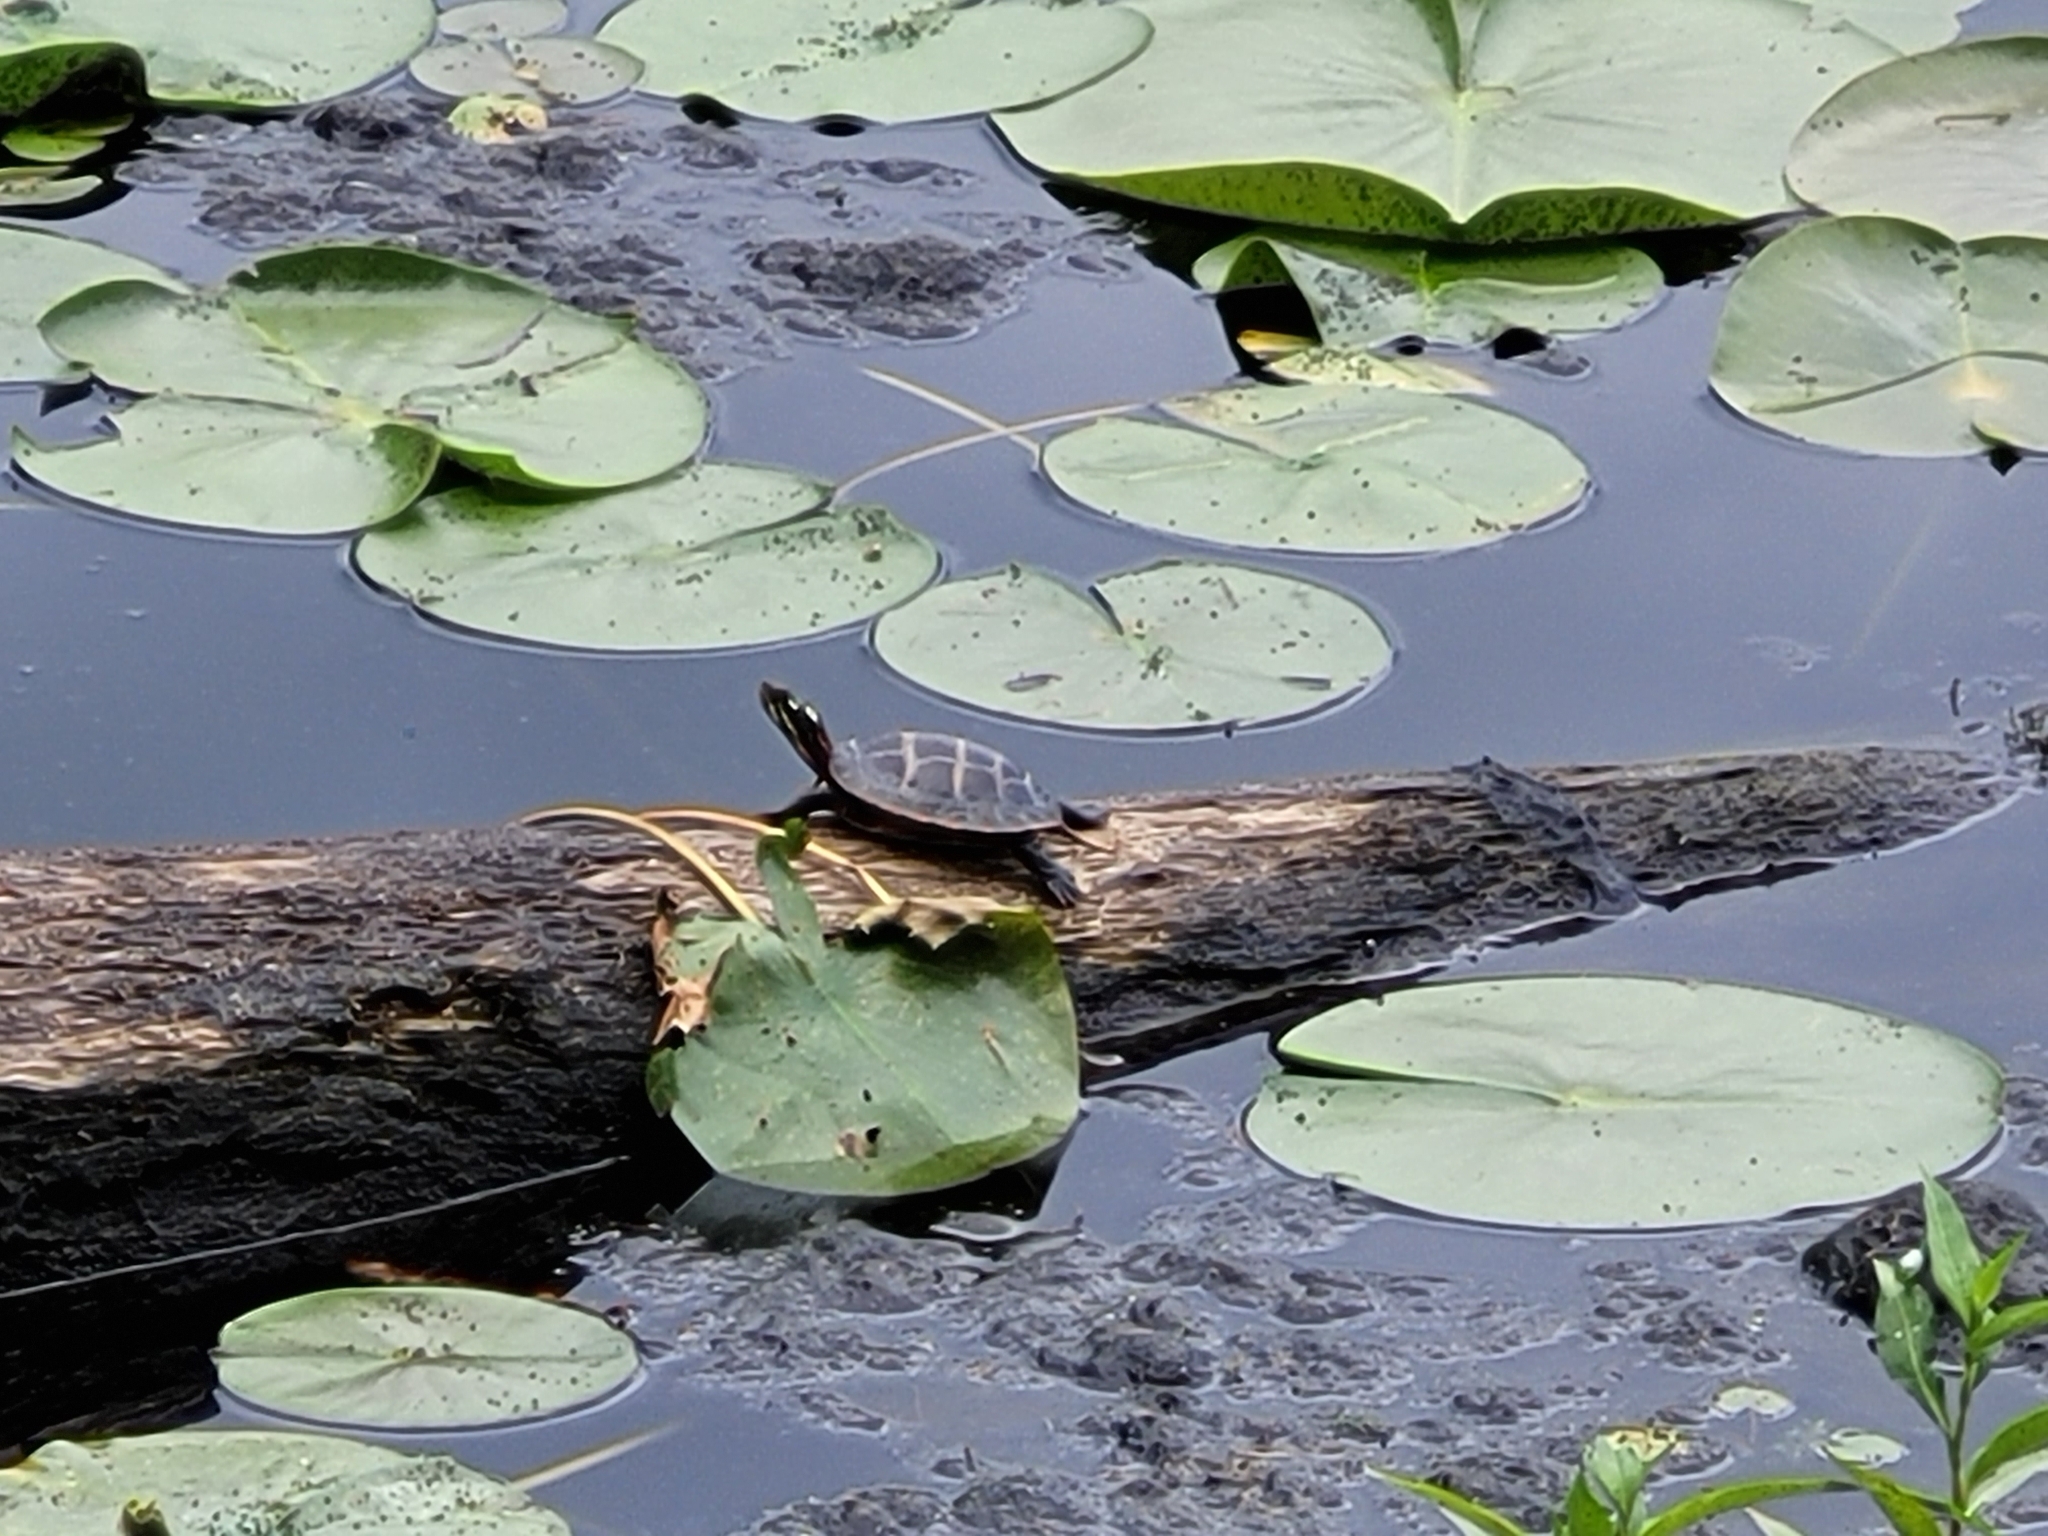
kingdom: Animalia
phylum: Chordata
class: Testudines
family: Emydidae
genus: Chrysemys
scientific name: Chrysemys picta
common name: Painted turtle
